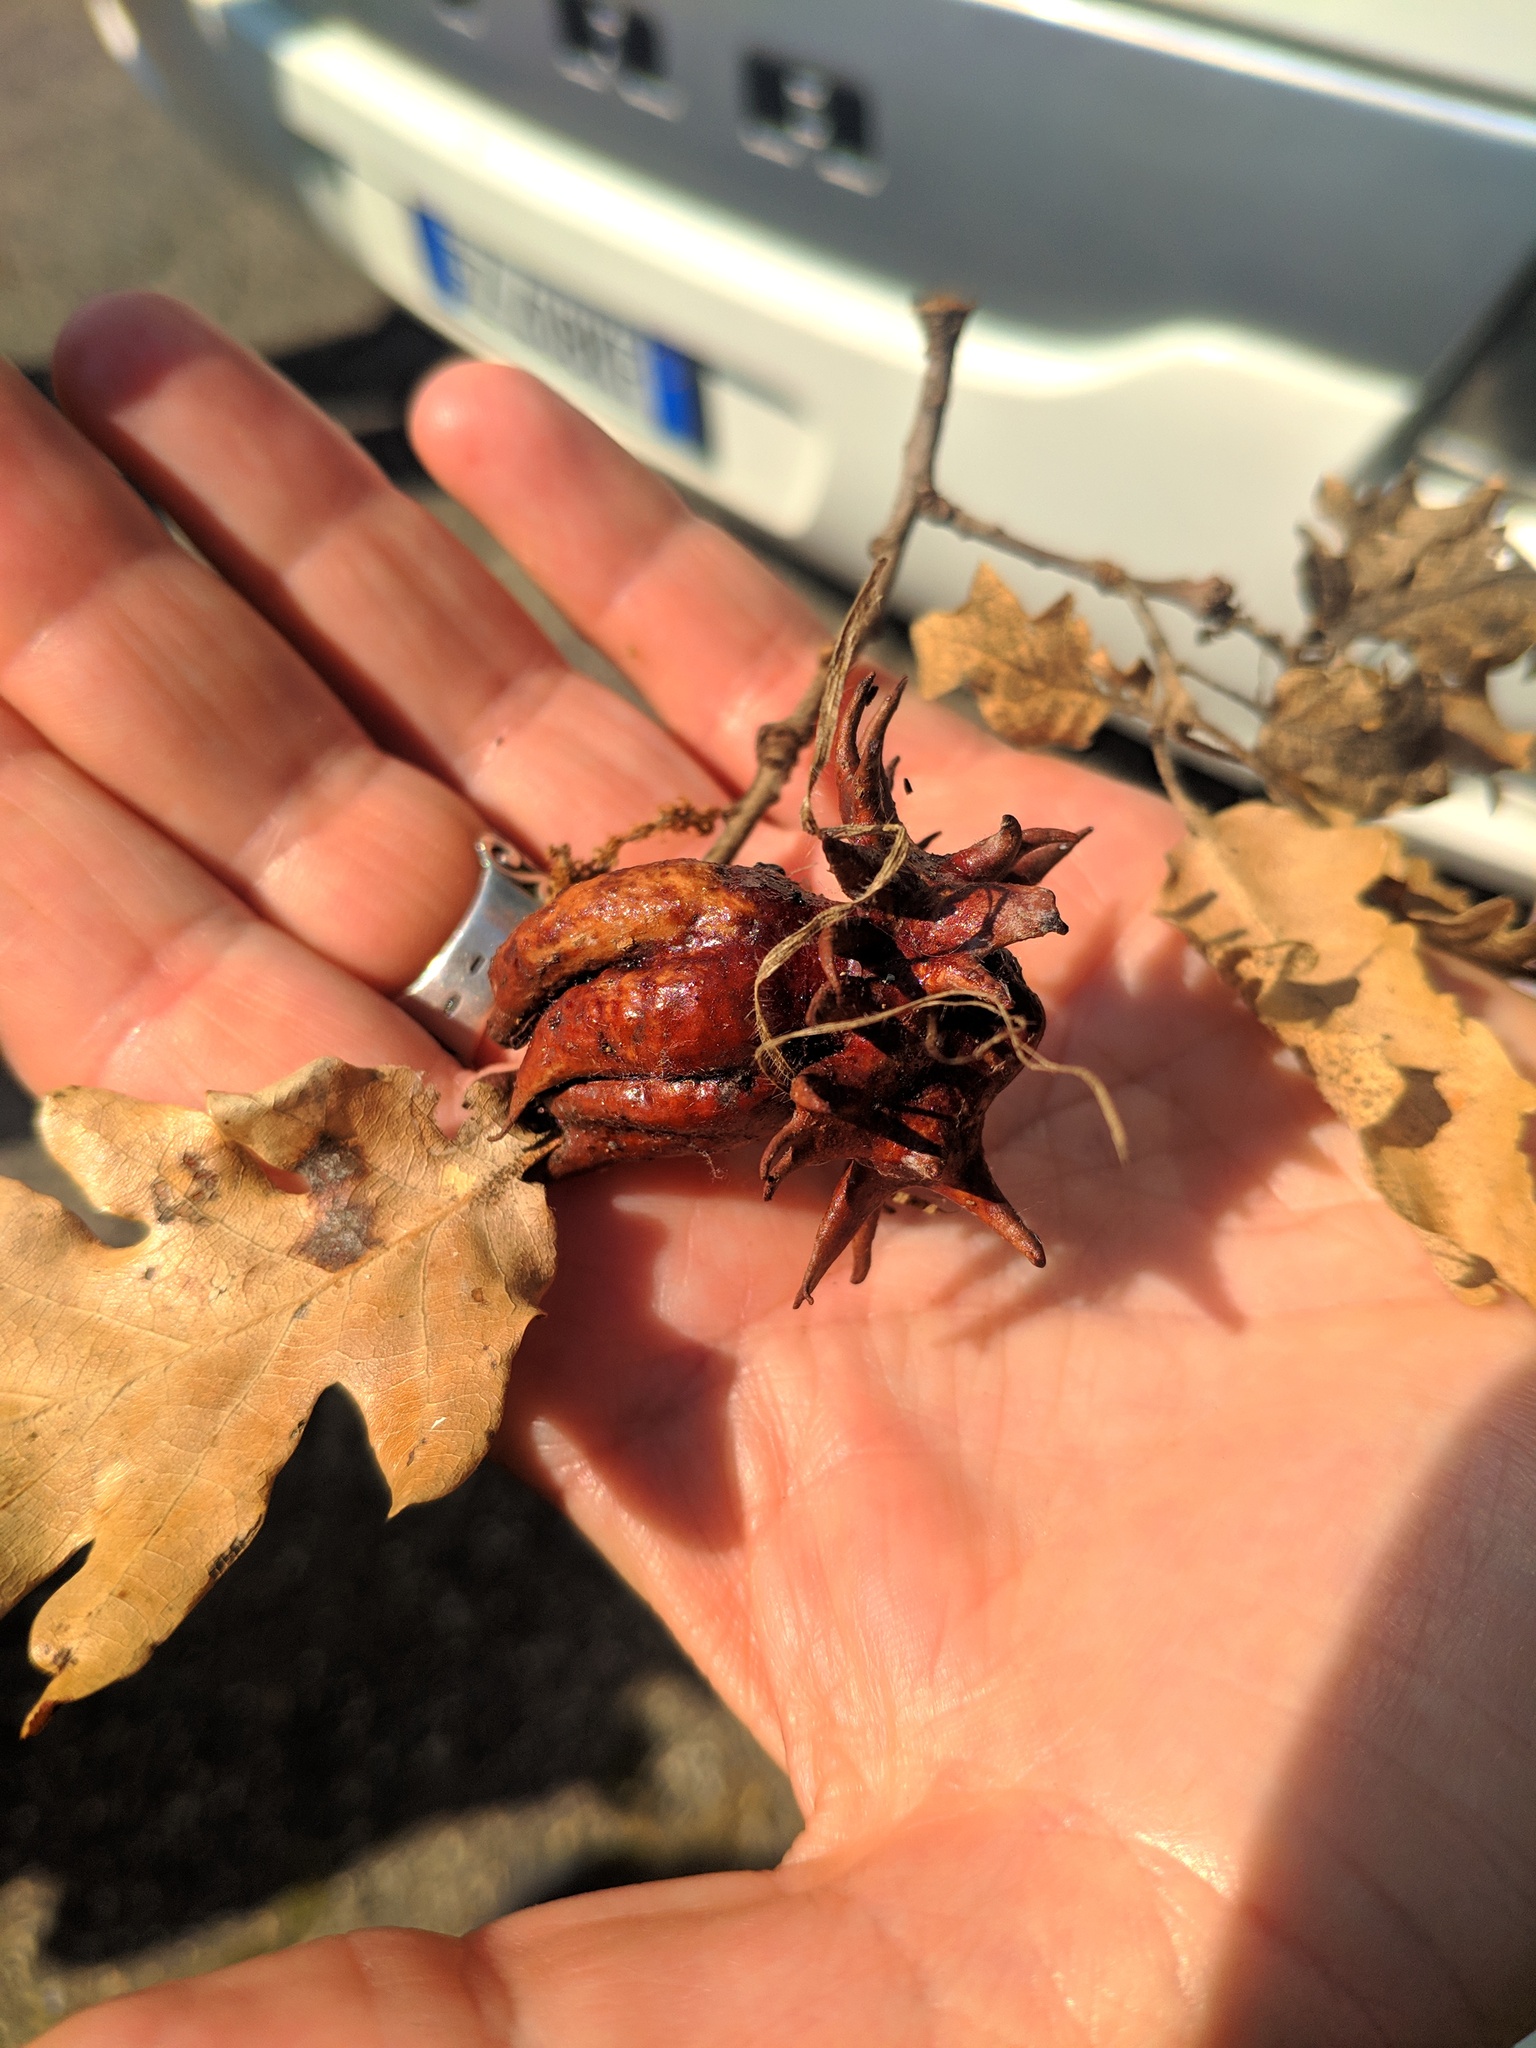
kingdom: Animalia
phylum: Arthropoda
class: Insecta
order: Hymenoptera
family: Cynipidae
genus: Andricus
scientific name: Andricus dentimitratus
